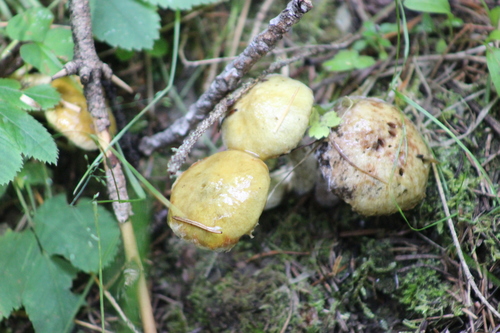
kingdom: Fungi
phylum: Basidiomycota
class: Agaricomycetes
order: Boletales
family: Suillaceae
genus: Suillus
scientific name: Suillus americanus
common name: Chicken fat mushroom
